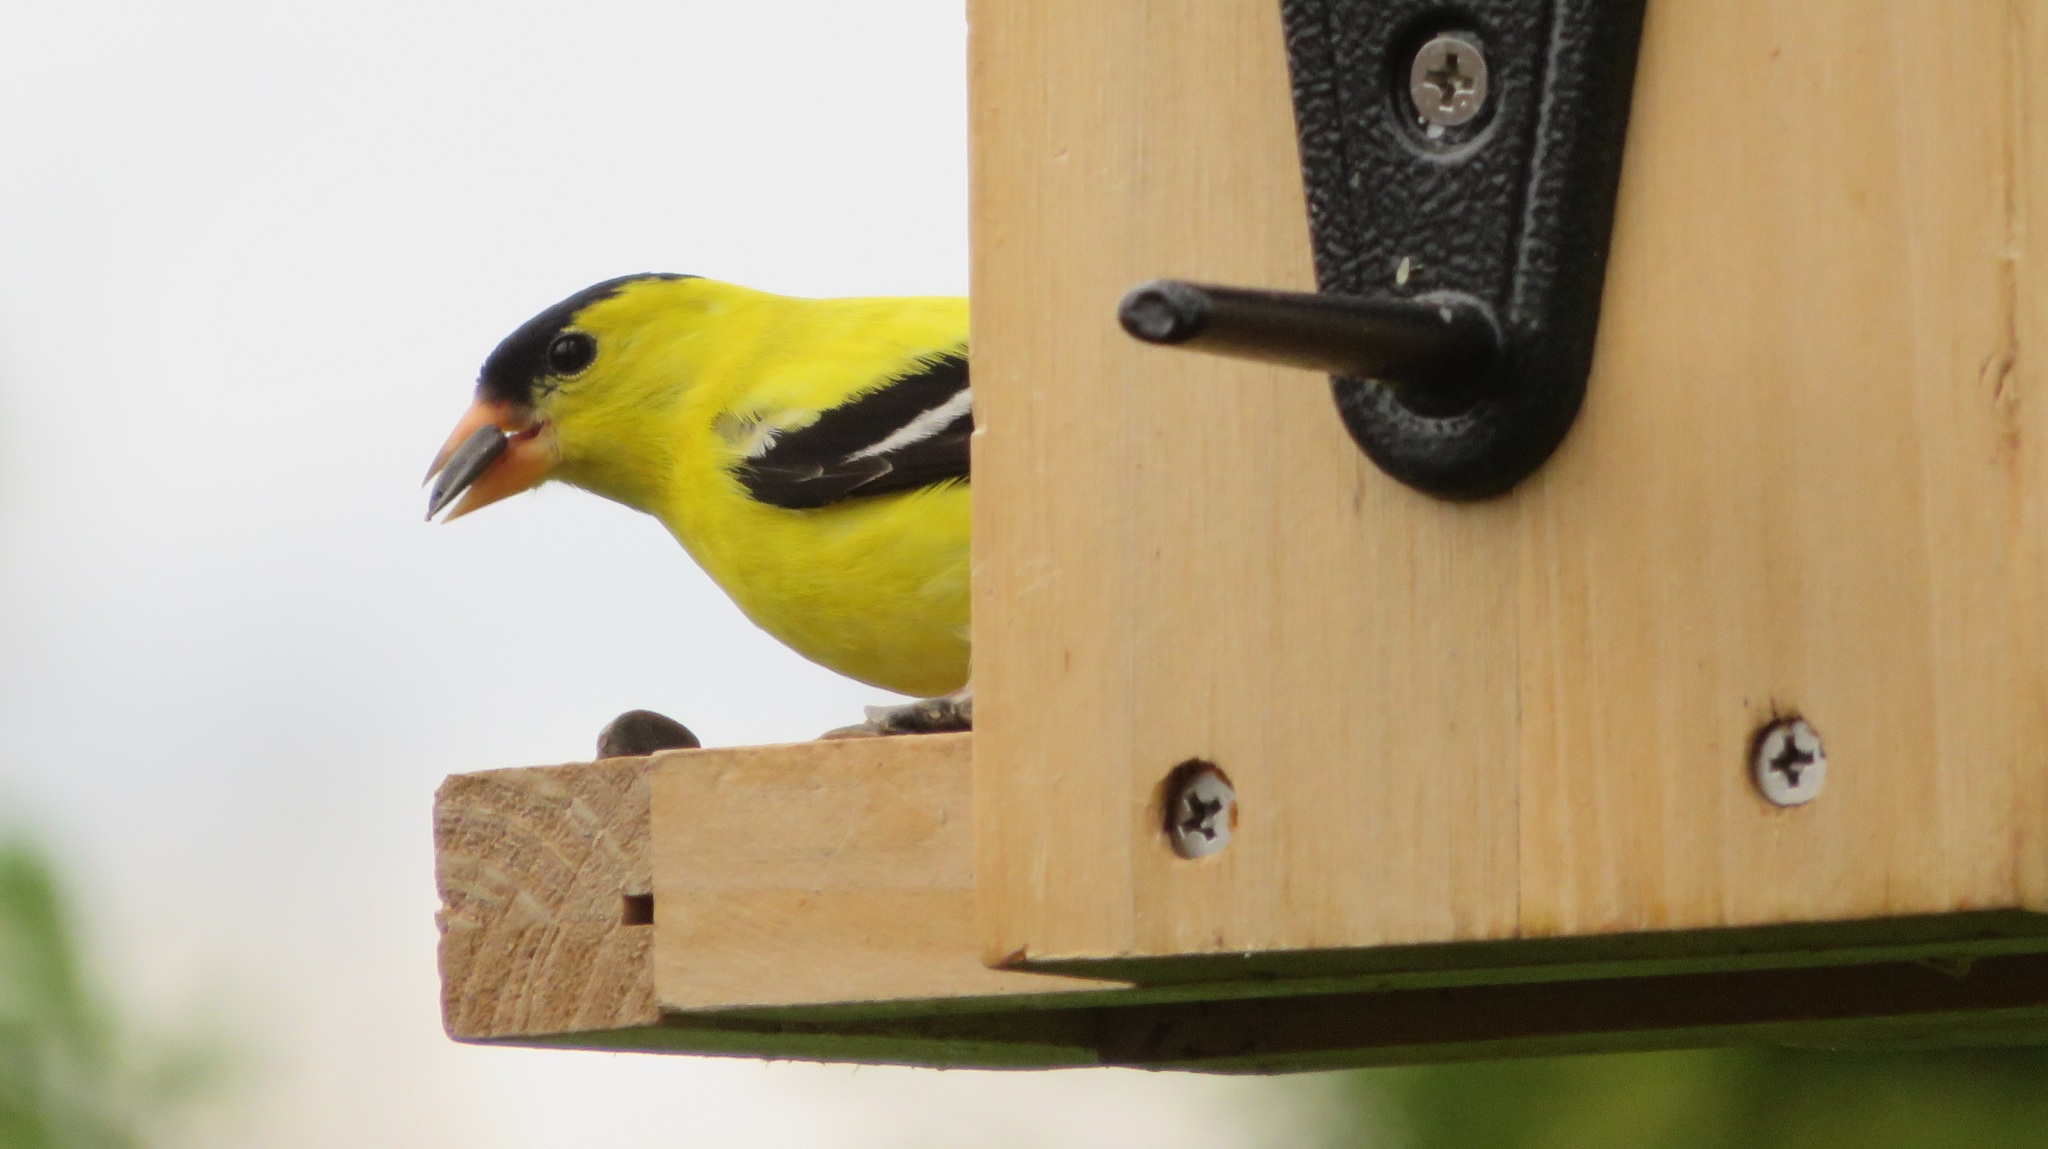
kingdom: Animalia
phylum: Chordata
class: Aves
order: Passeriformes
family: Fringillidae
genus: Spinus
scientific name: Spinus tristis
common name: American goldfinch
